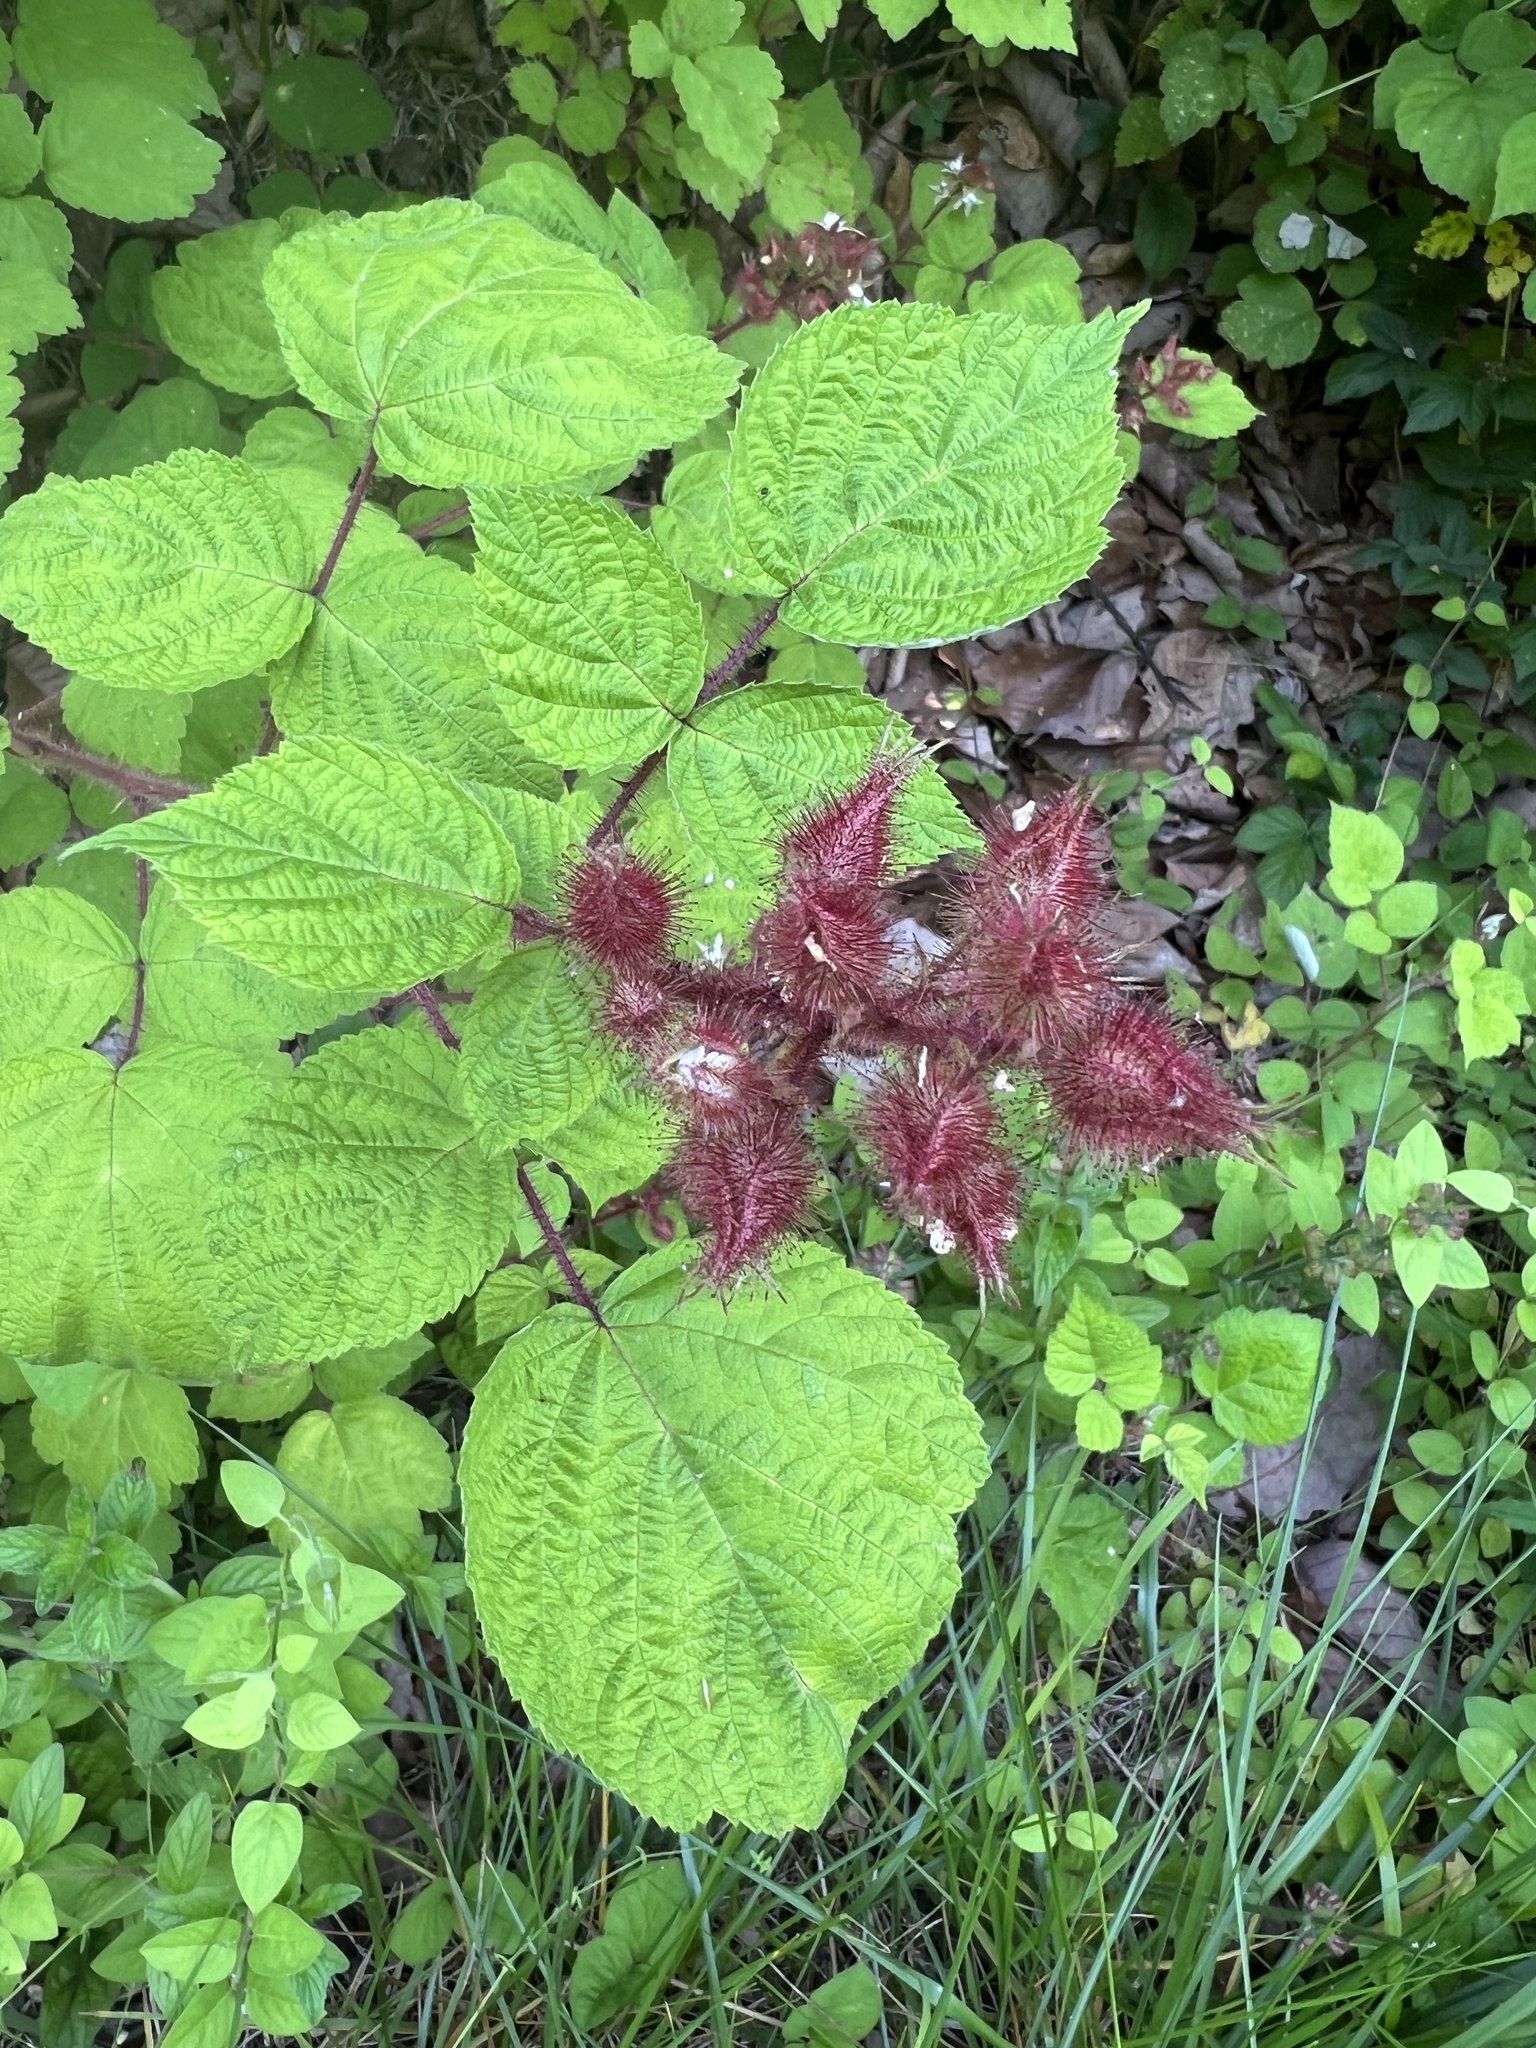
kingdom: Plantae
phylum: Tracheophyta
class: Magnoliopsida
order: Rosales
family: Rosaceae
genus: Rubus
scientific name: Rubus phoenicolasius
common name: Japanese wineberry
